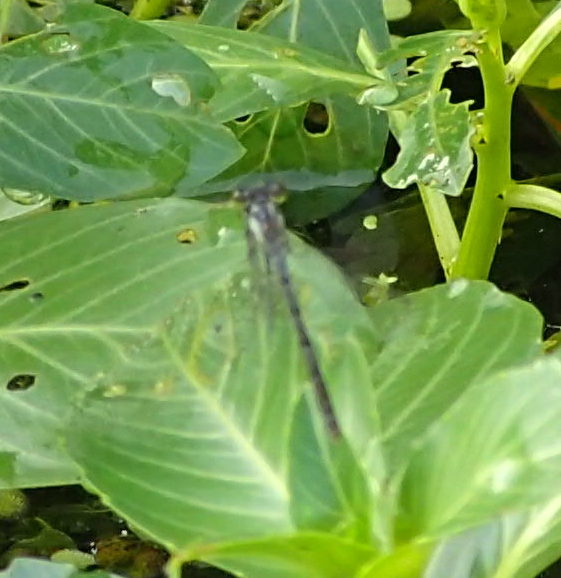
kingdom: Animalia
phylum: Arthropoda
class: Insecta
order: Odonata
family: Coenagrionidae
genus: Ischnura
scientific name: Ischnura posita
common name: Fragile forktail
